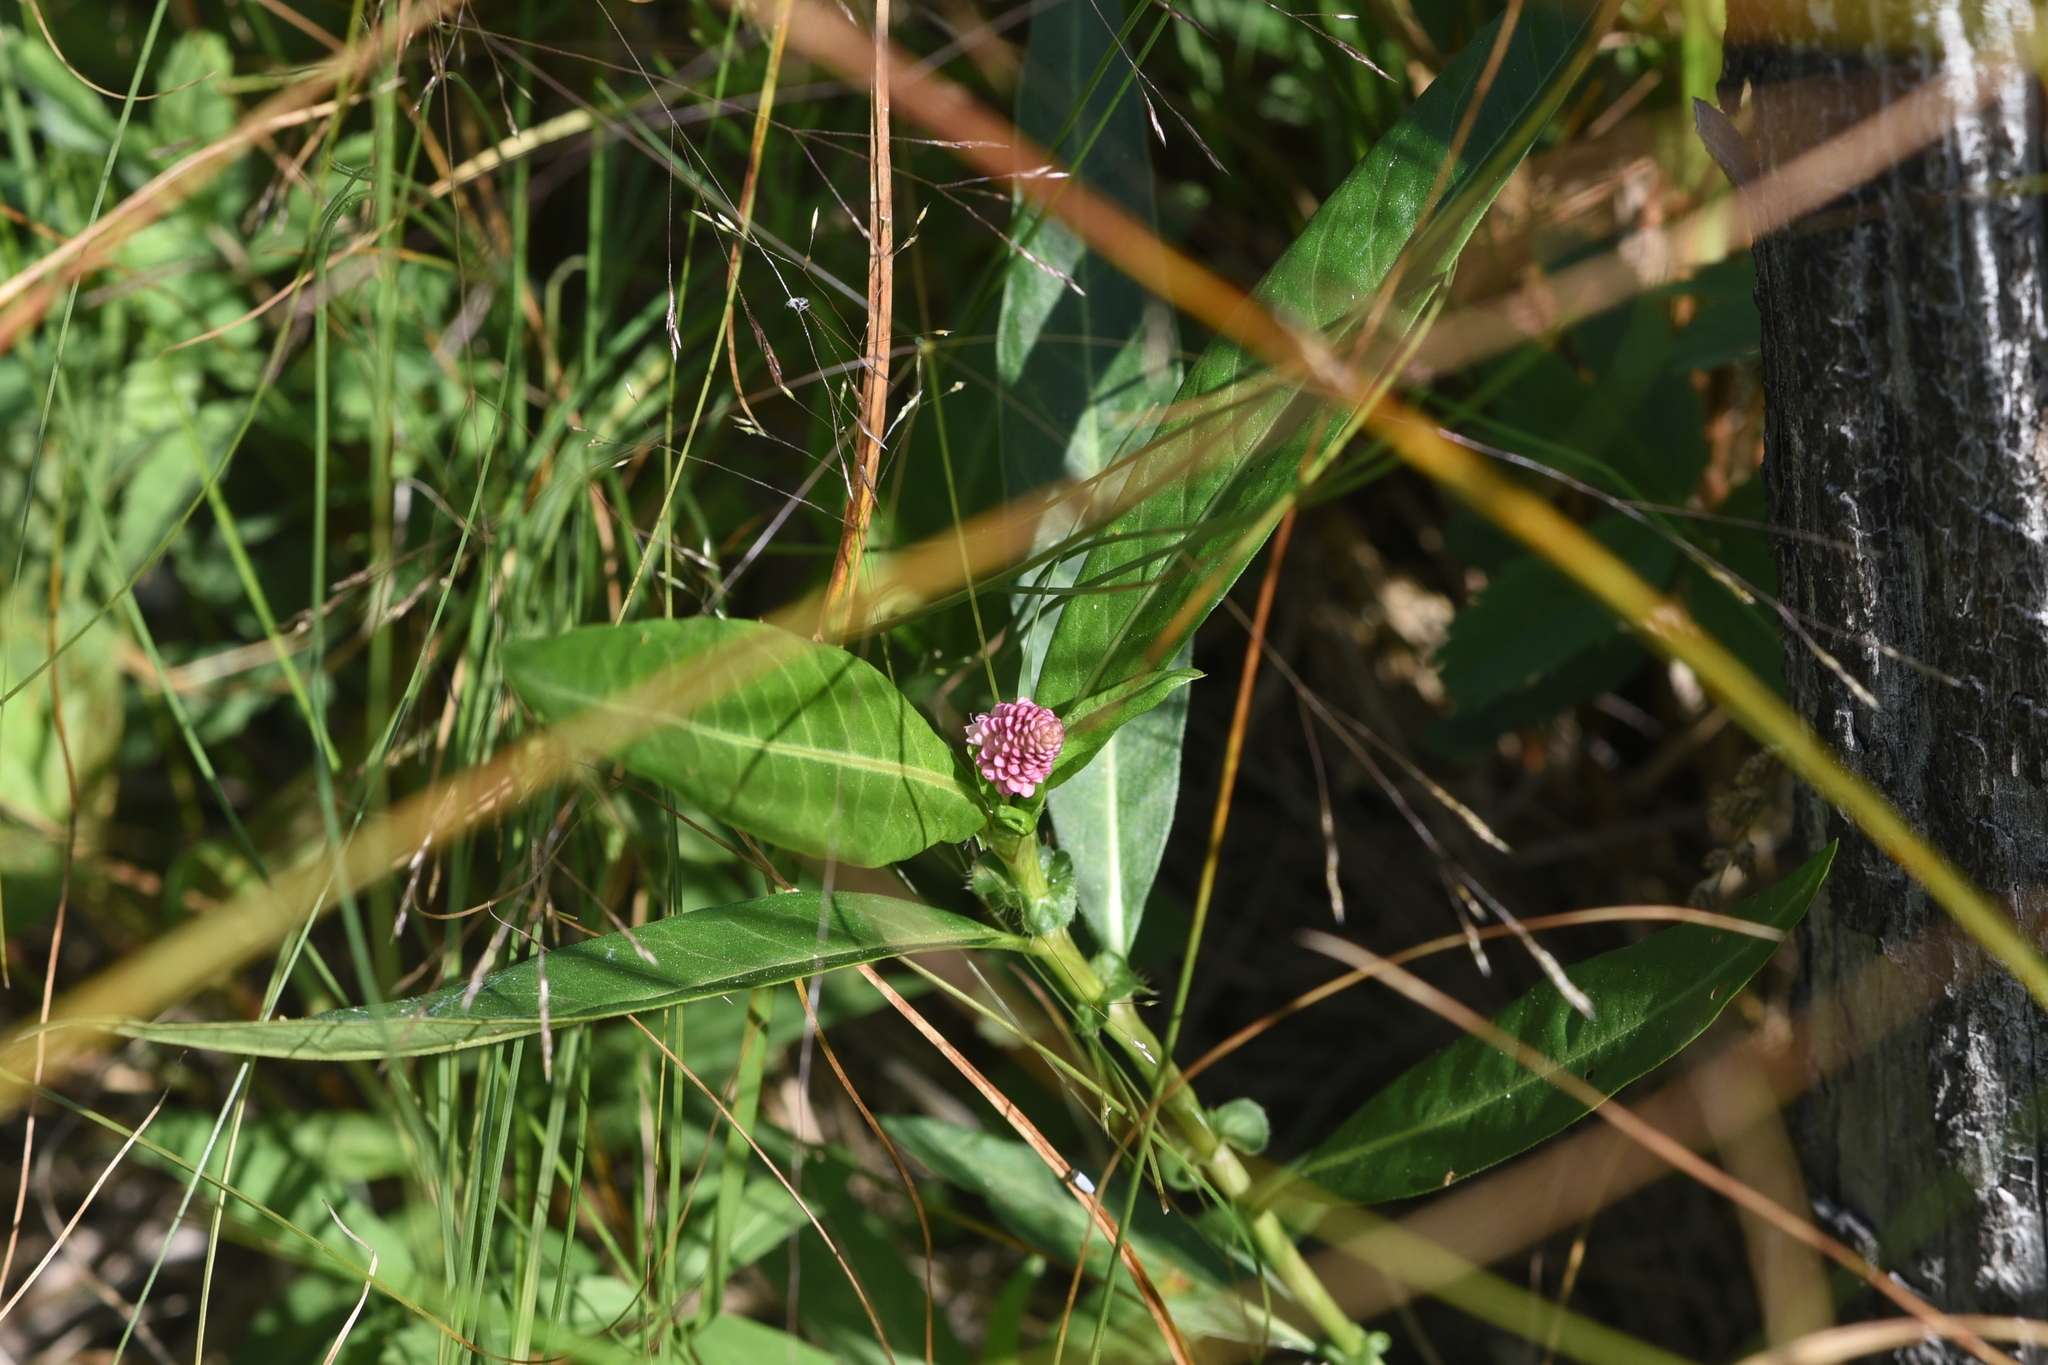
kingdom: Plantae
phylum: Tracheophyta
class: Magnoliopsida
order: Caryophyllales
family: Polygonaceae
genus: Persicaria
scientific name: Persicaria amphibia
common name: Amphibious bistort
